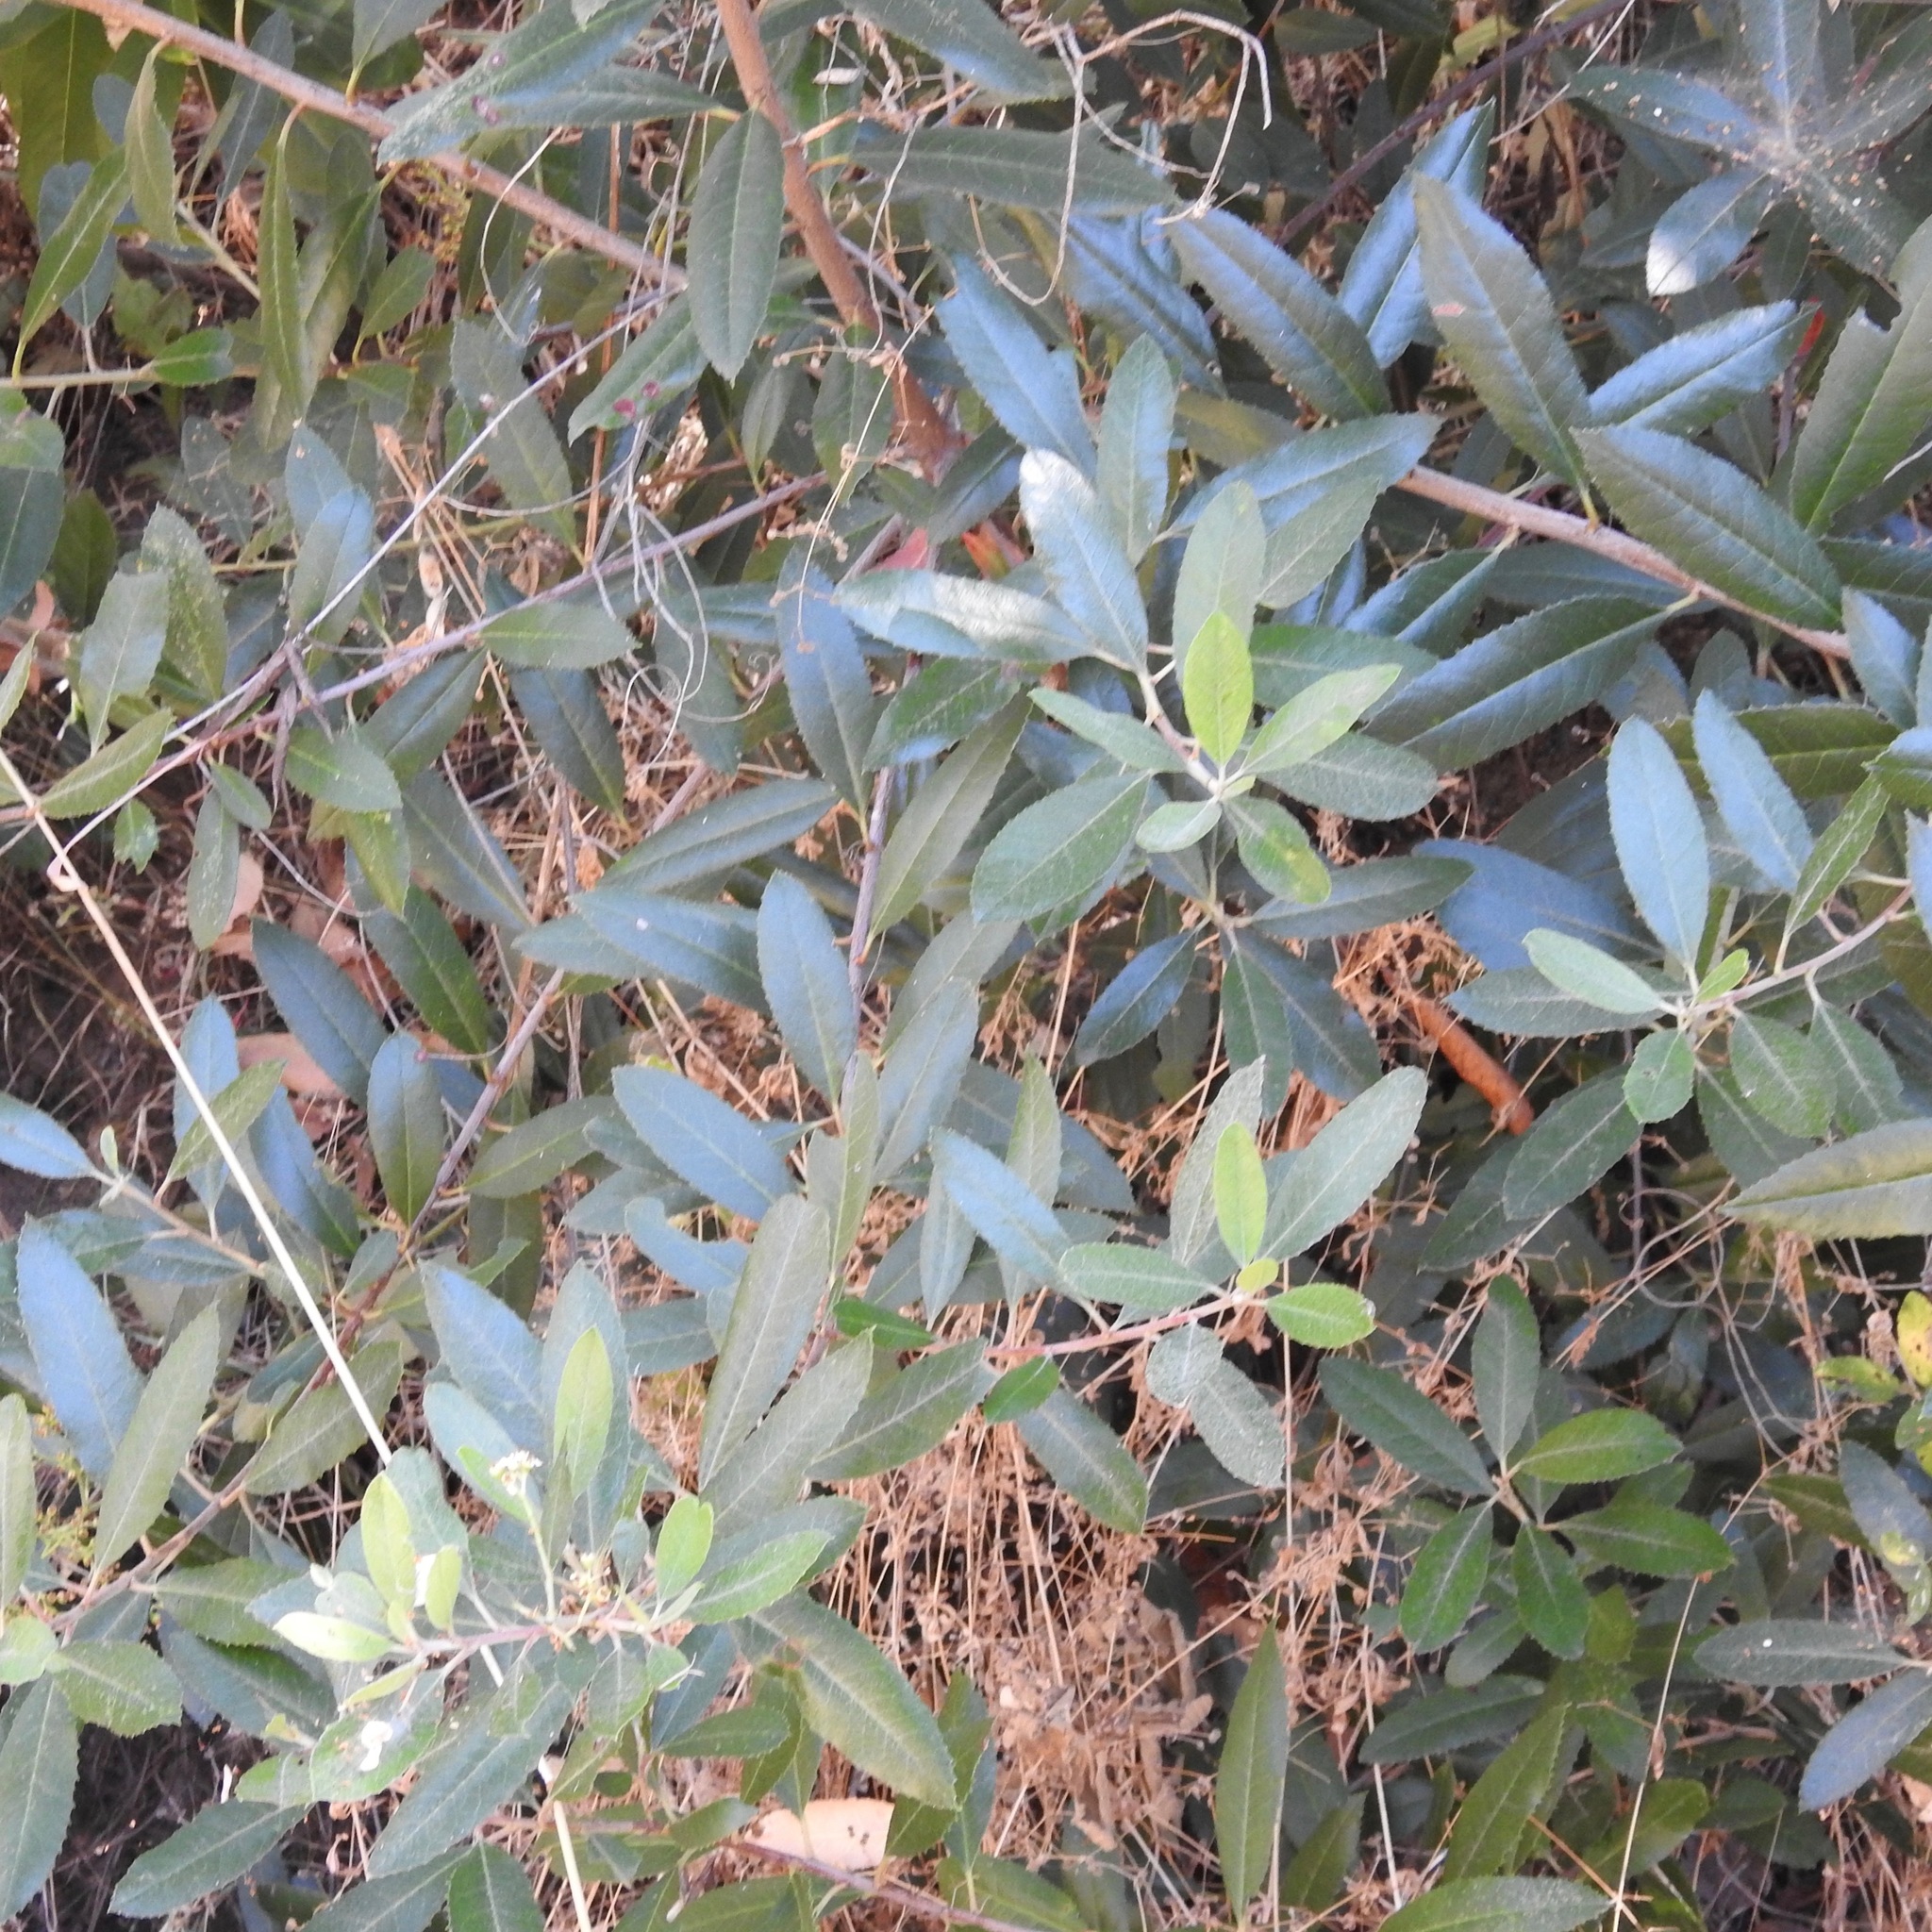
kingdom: Plantae
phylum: Tracheophyta
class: Magnoliopsida
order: Rosales
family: Rosaceae
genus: Heteromeles
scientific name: Heteromeles arbutifolia
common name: California-holly
